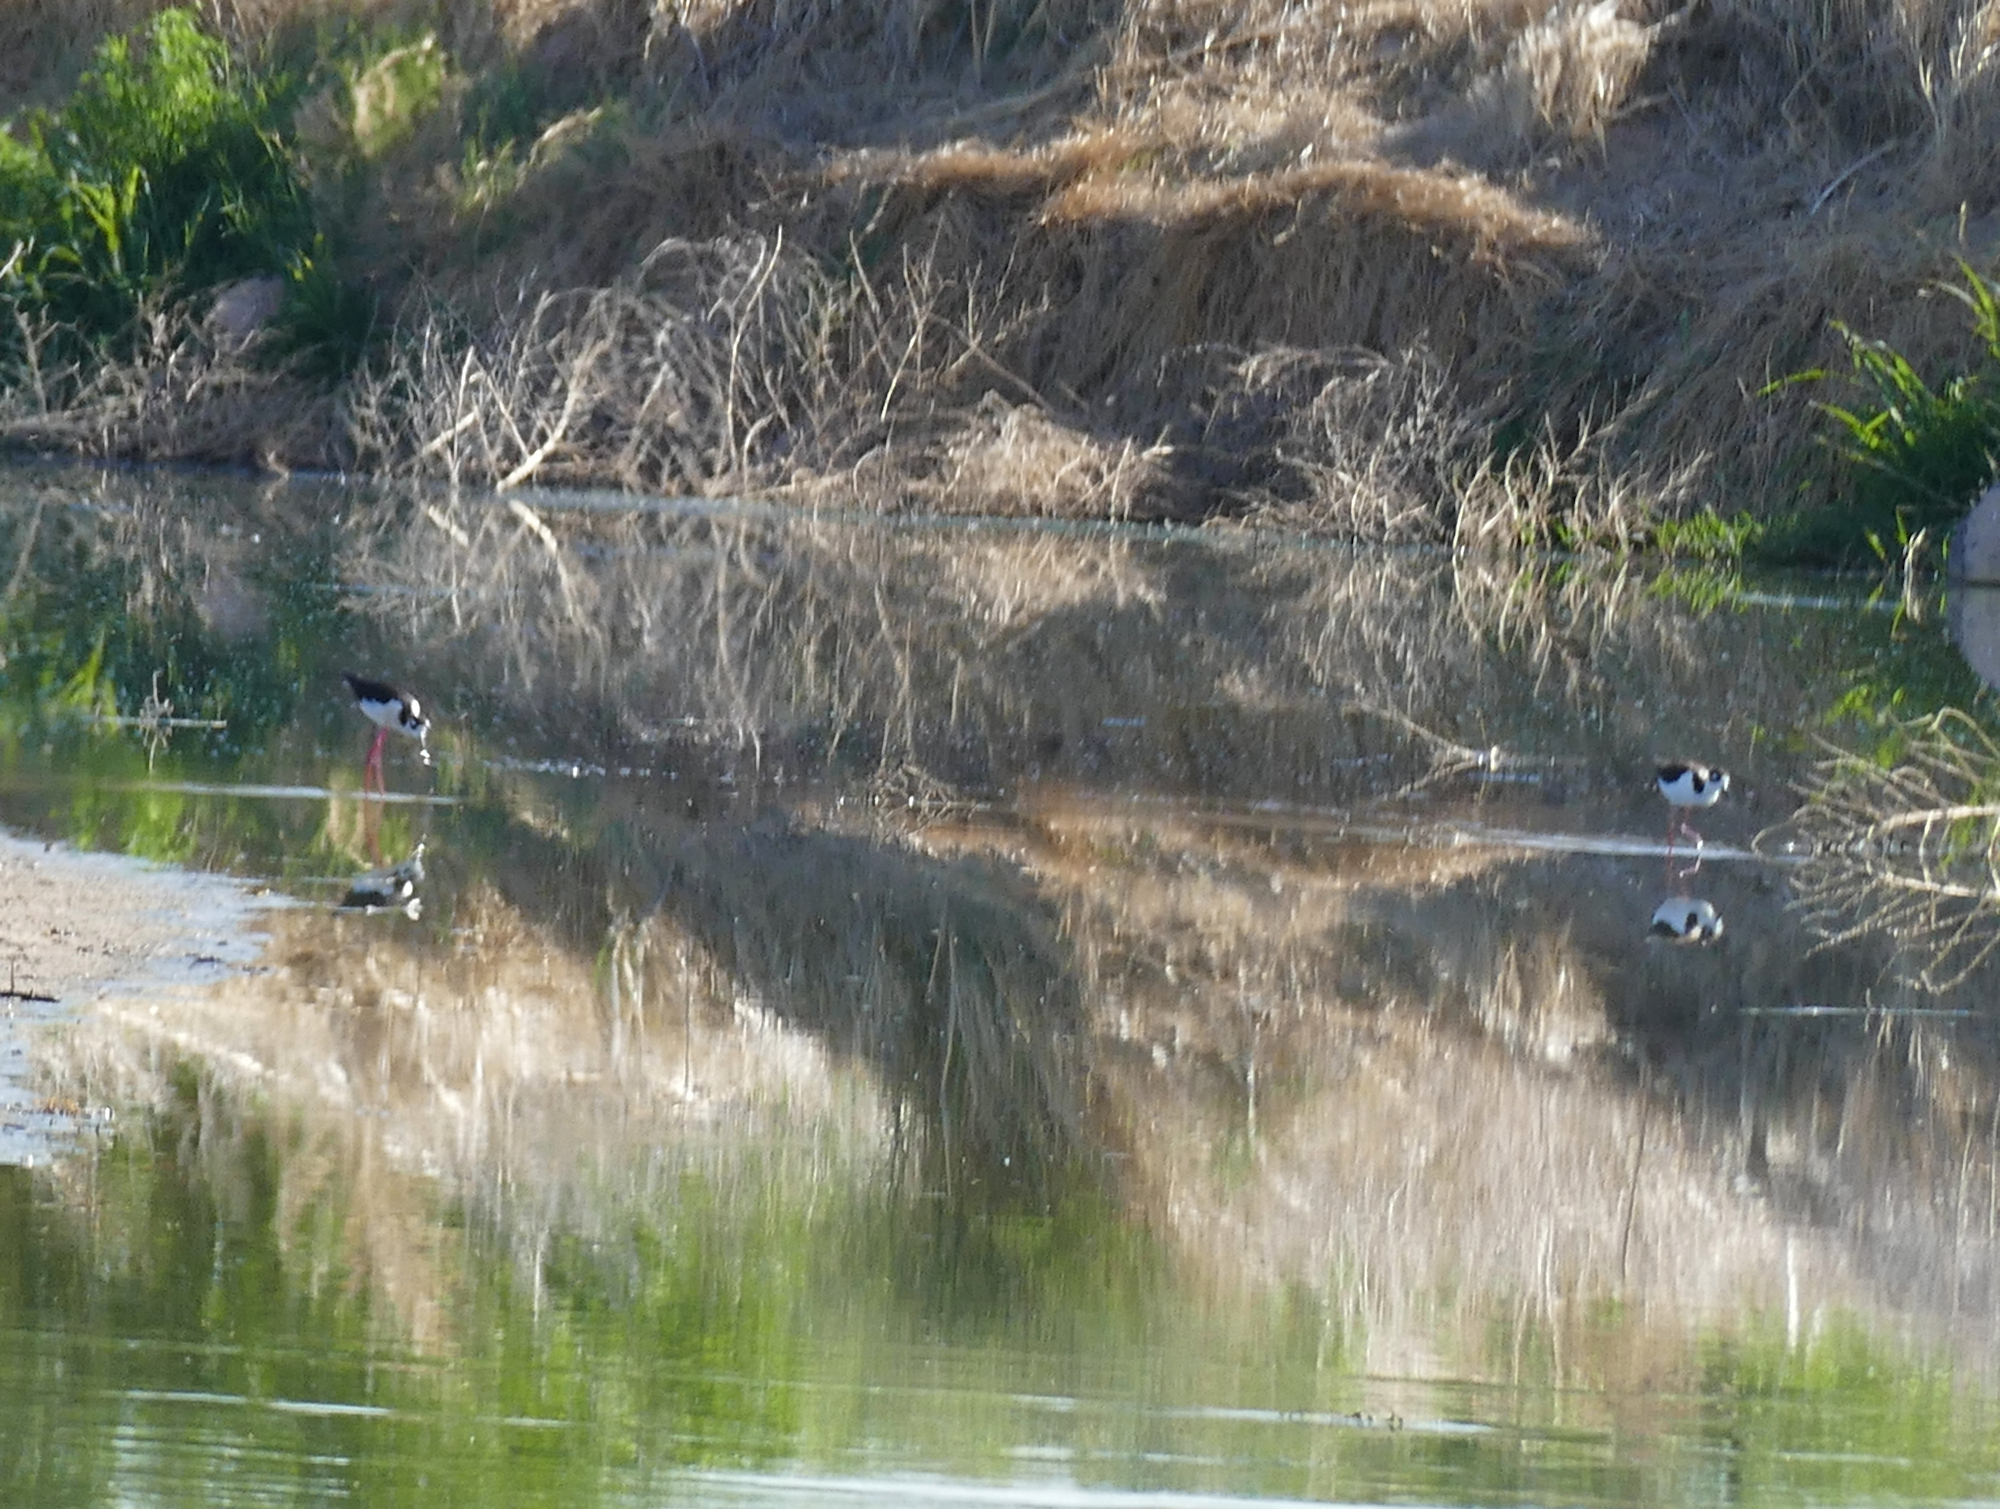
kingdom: Animalia
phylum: Chordata
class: Aves
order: Charadriiformes
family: Recurvirostridae
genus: Himantopus
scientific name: Himantopus mexicanus
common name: Black-necked stilt
